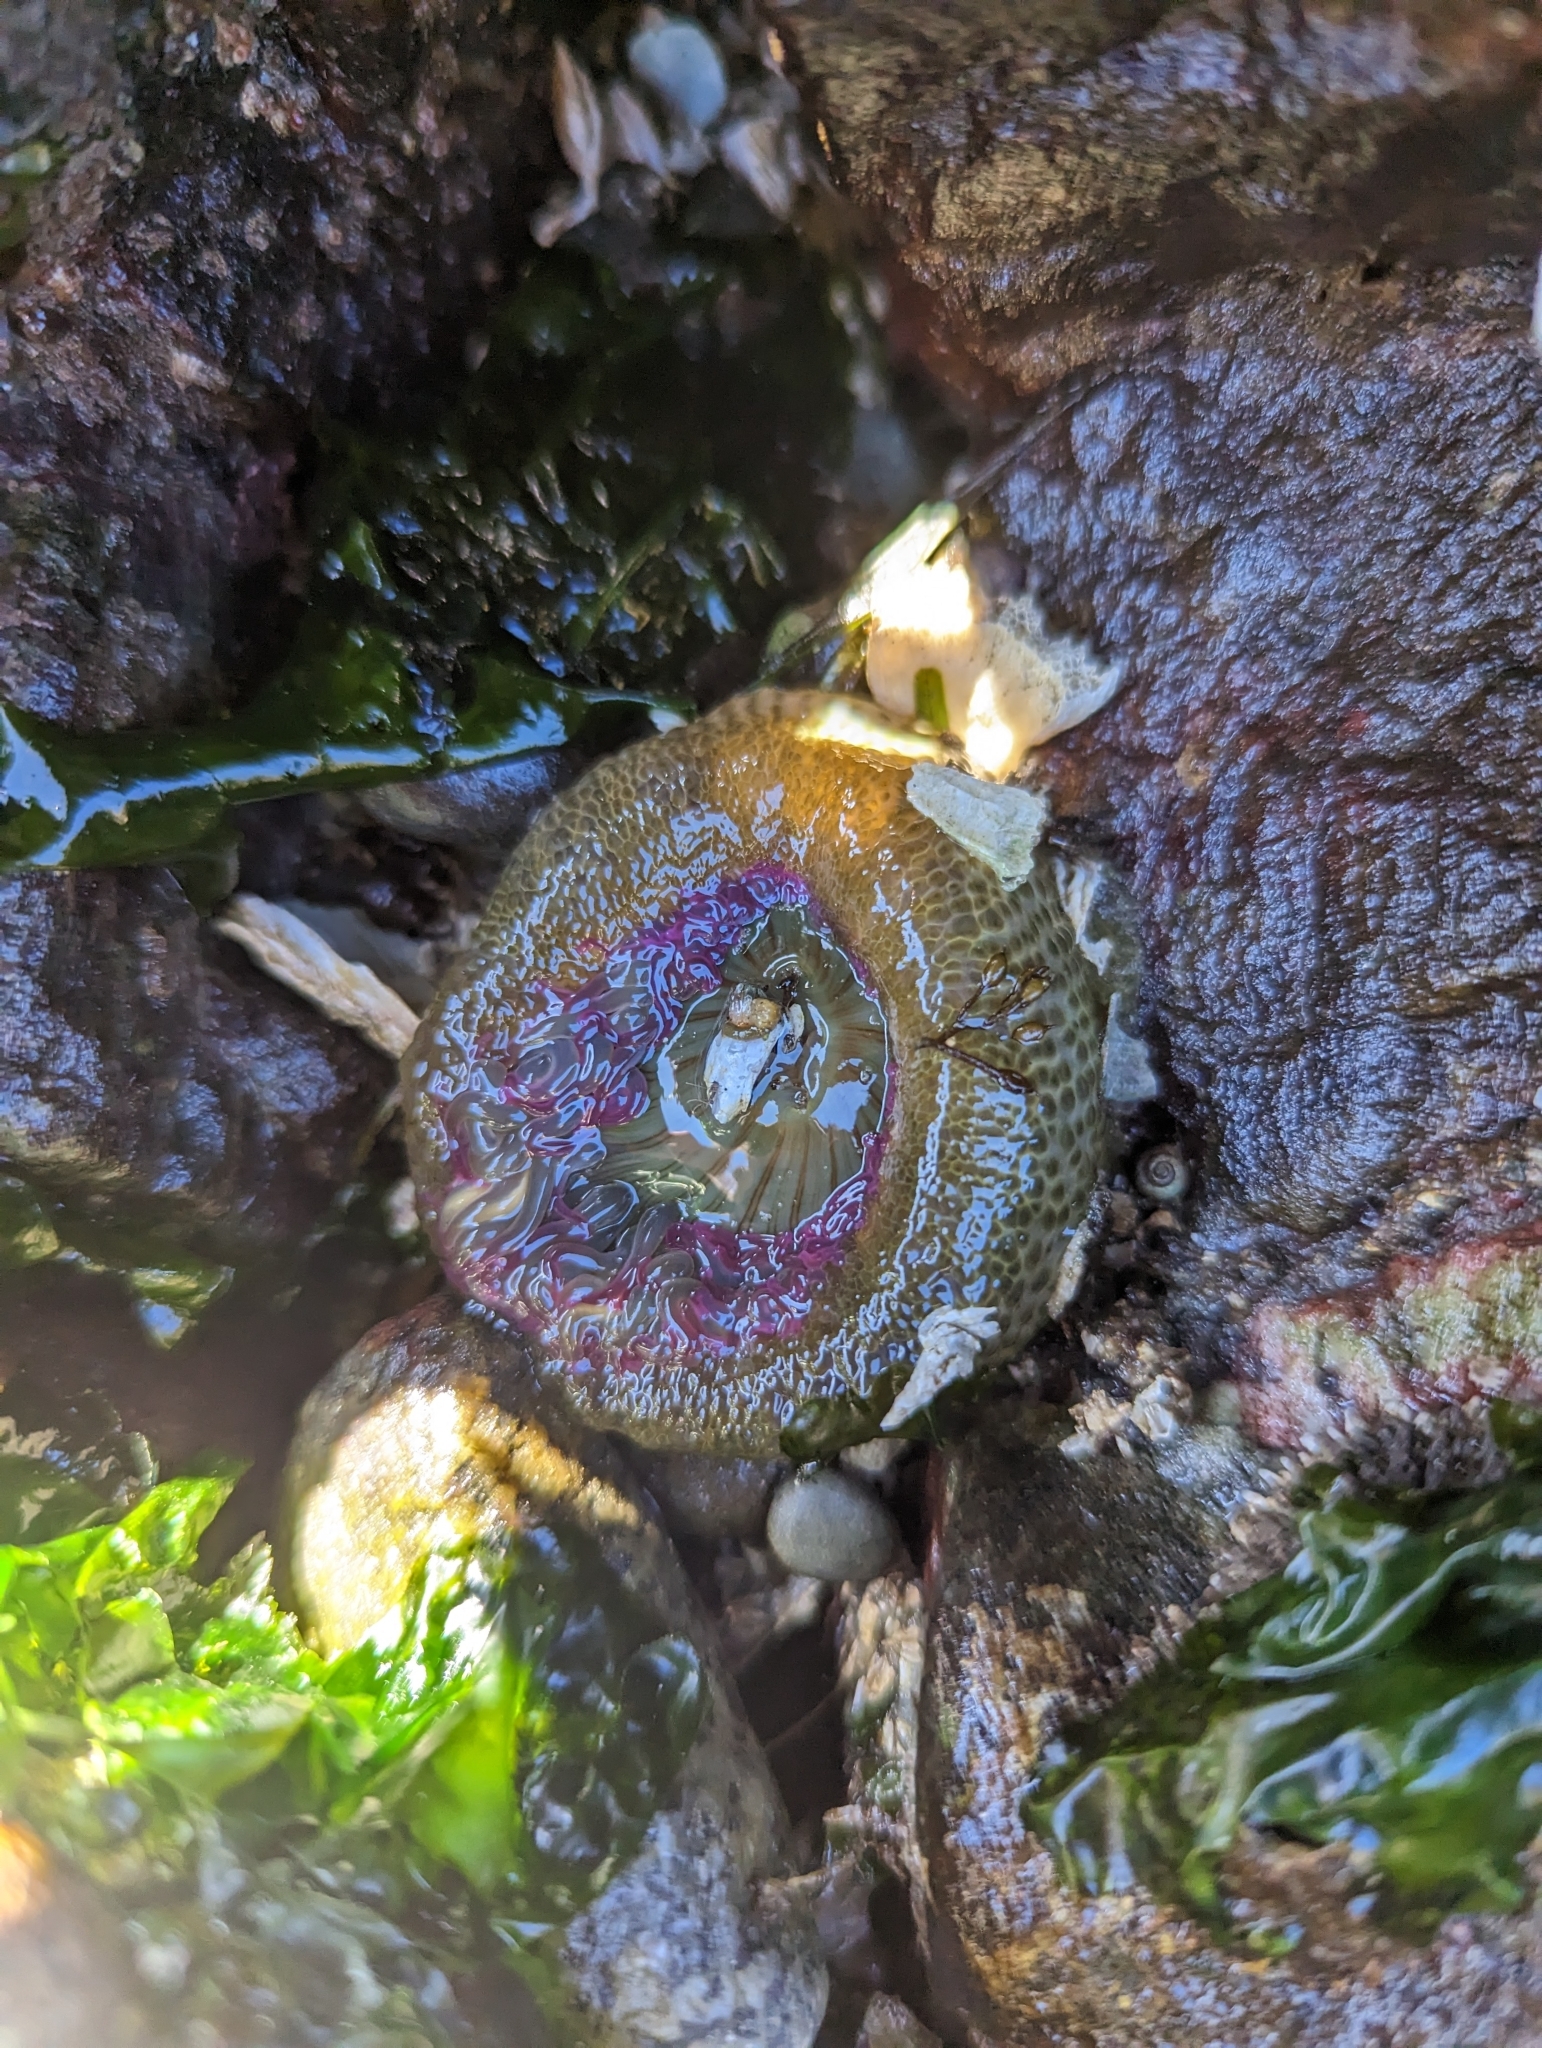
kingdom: Animalia
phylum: Cnidaria
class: Anthozoa
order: Actiniaria
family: Actiniidae
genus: Anthopleura
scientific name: Anthopleura elegantissima
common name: Clonal anemone
